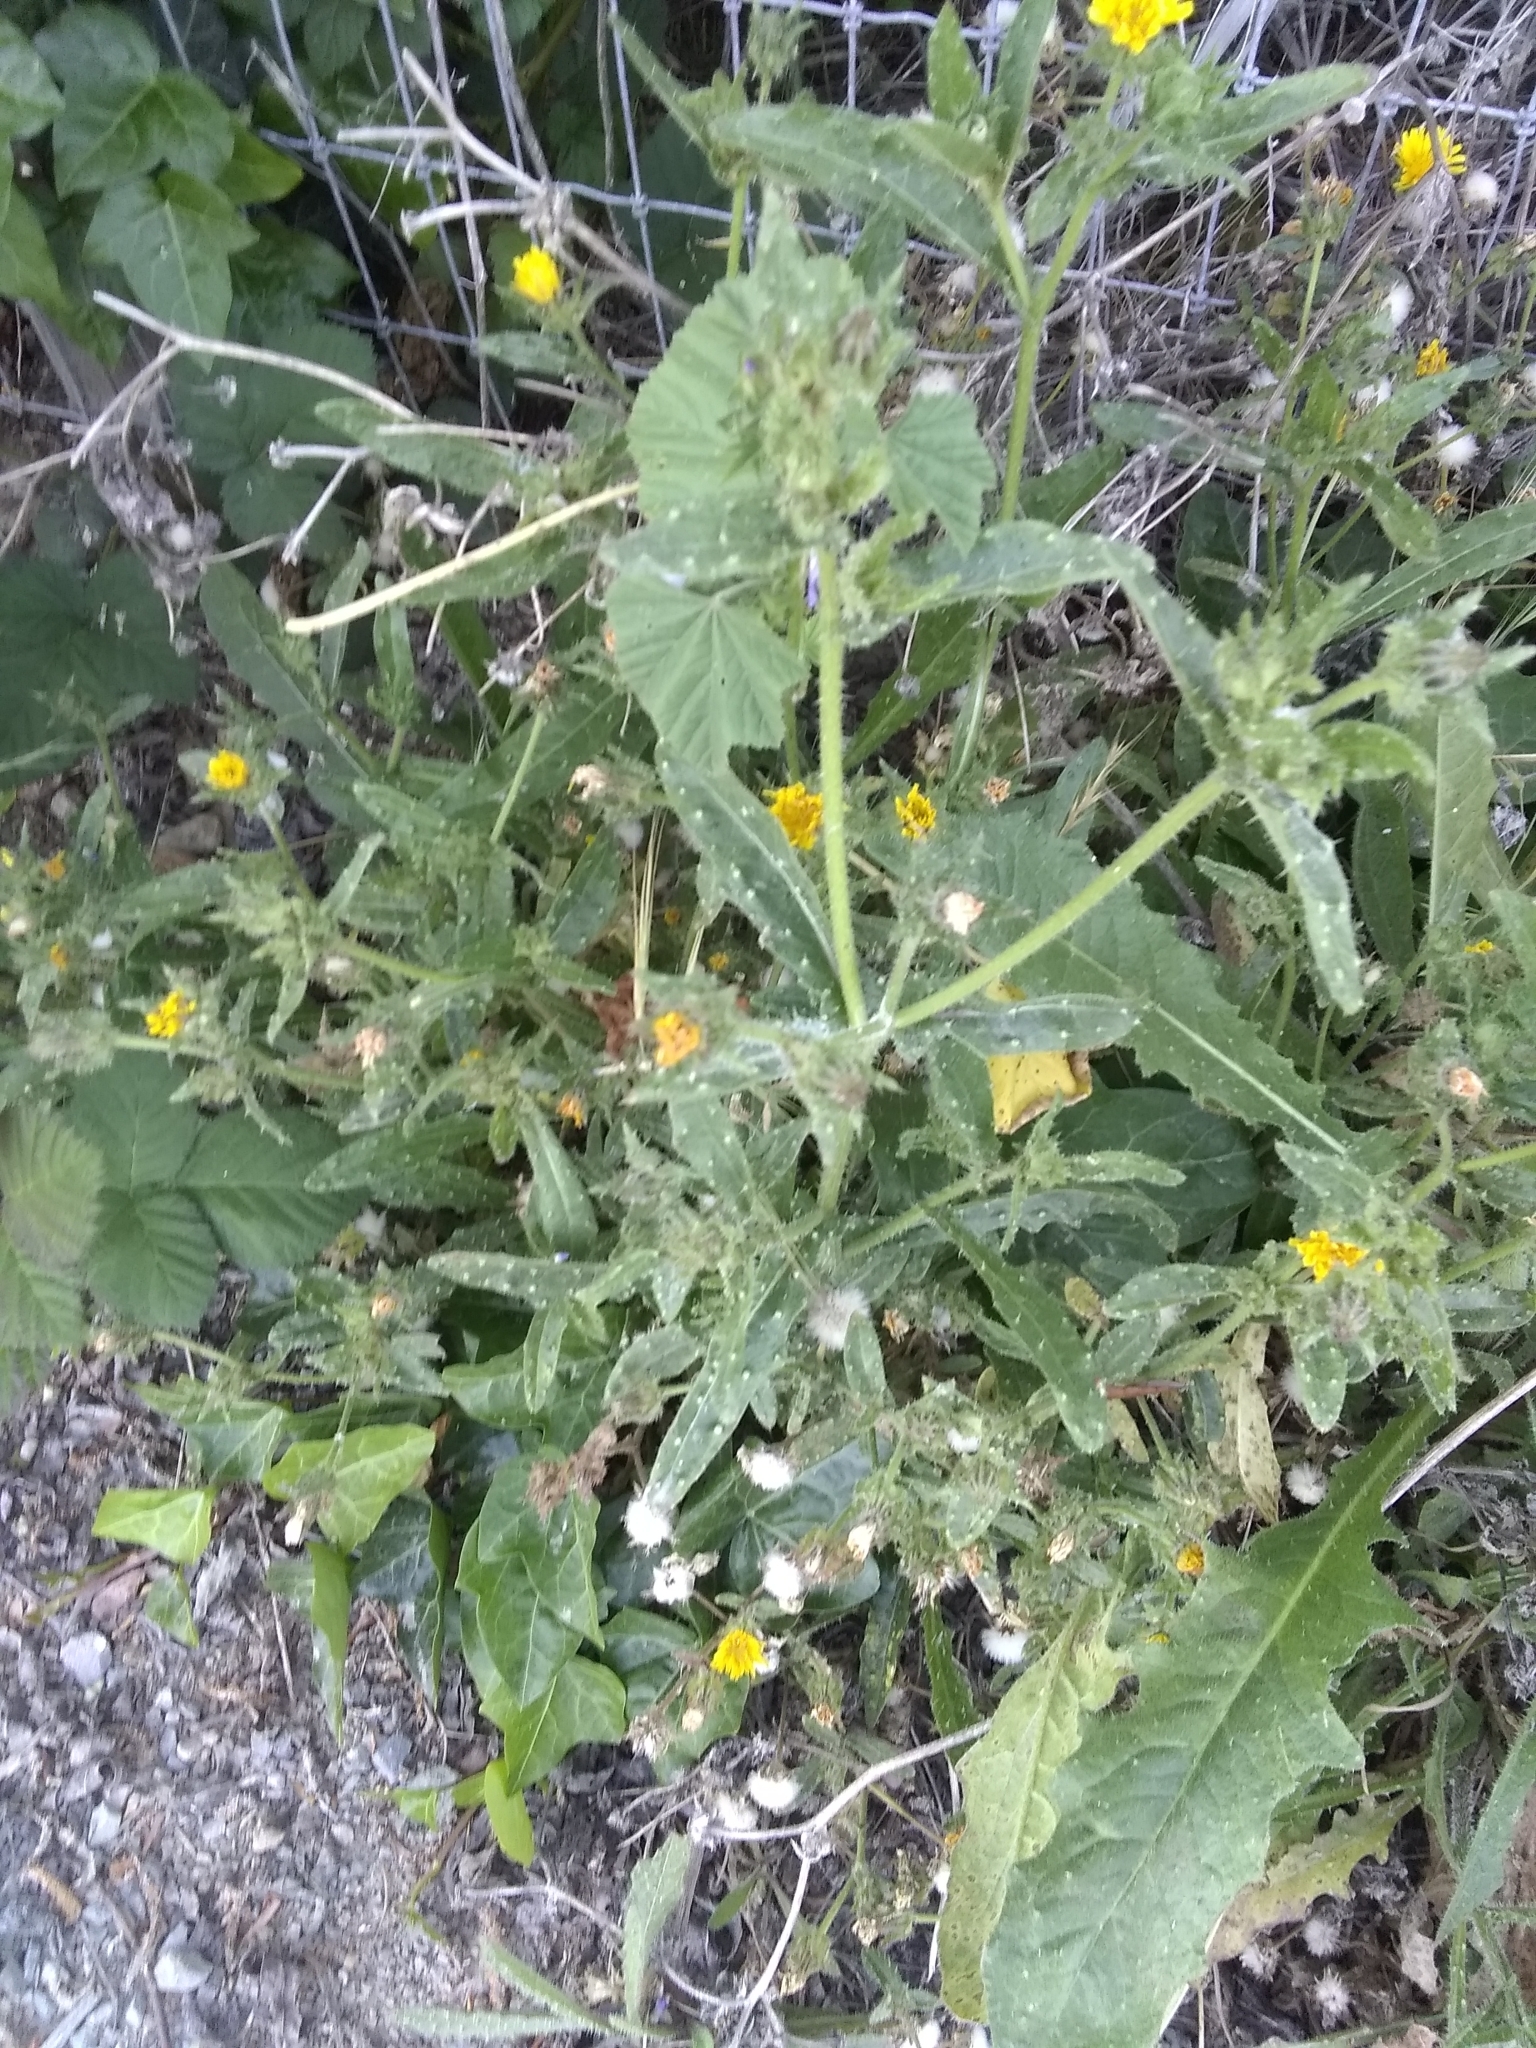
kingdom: Plantae
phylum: Tracheophyta
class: Magnoliopsida
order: Asterales
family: Asteraceae
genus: Helminthotheca
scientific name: Helminthotheca echioides
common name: Ox-tongue
